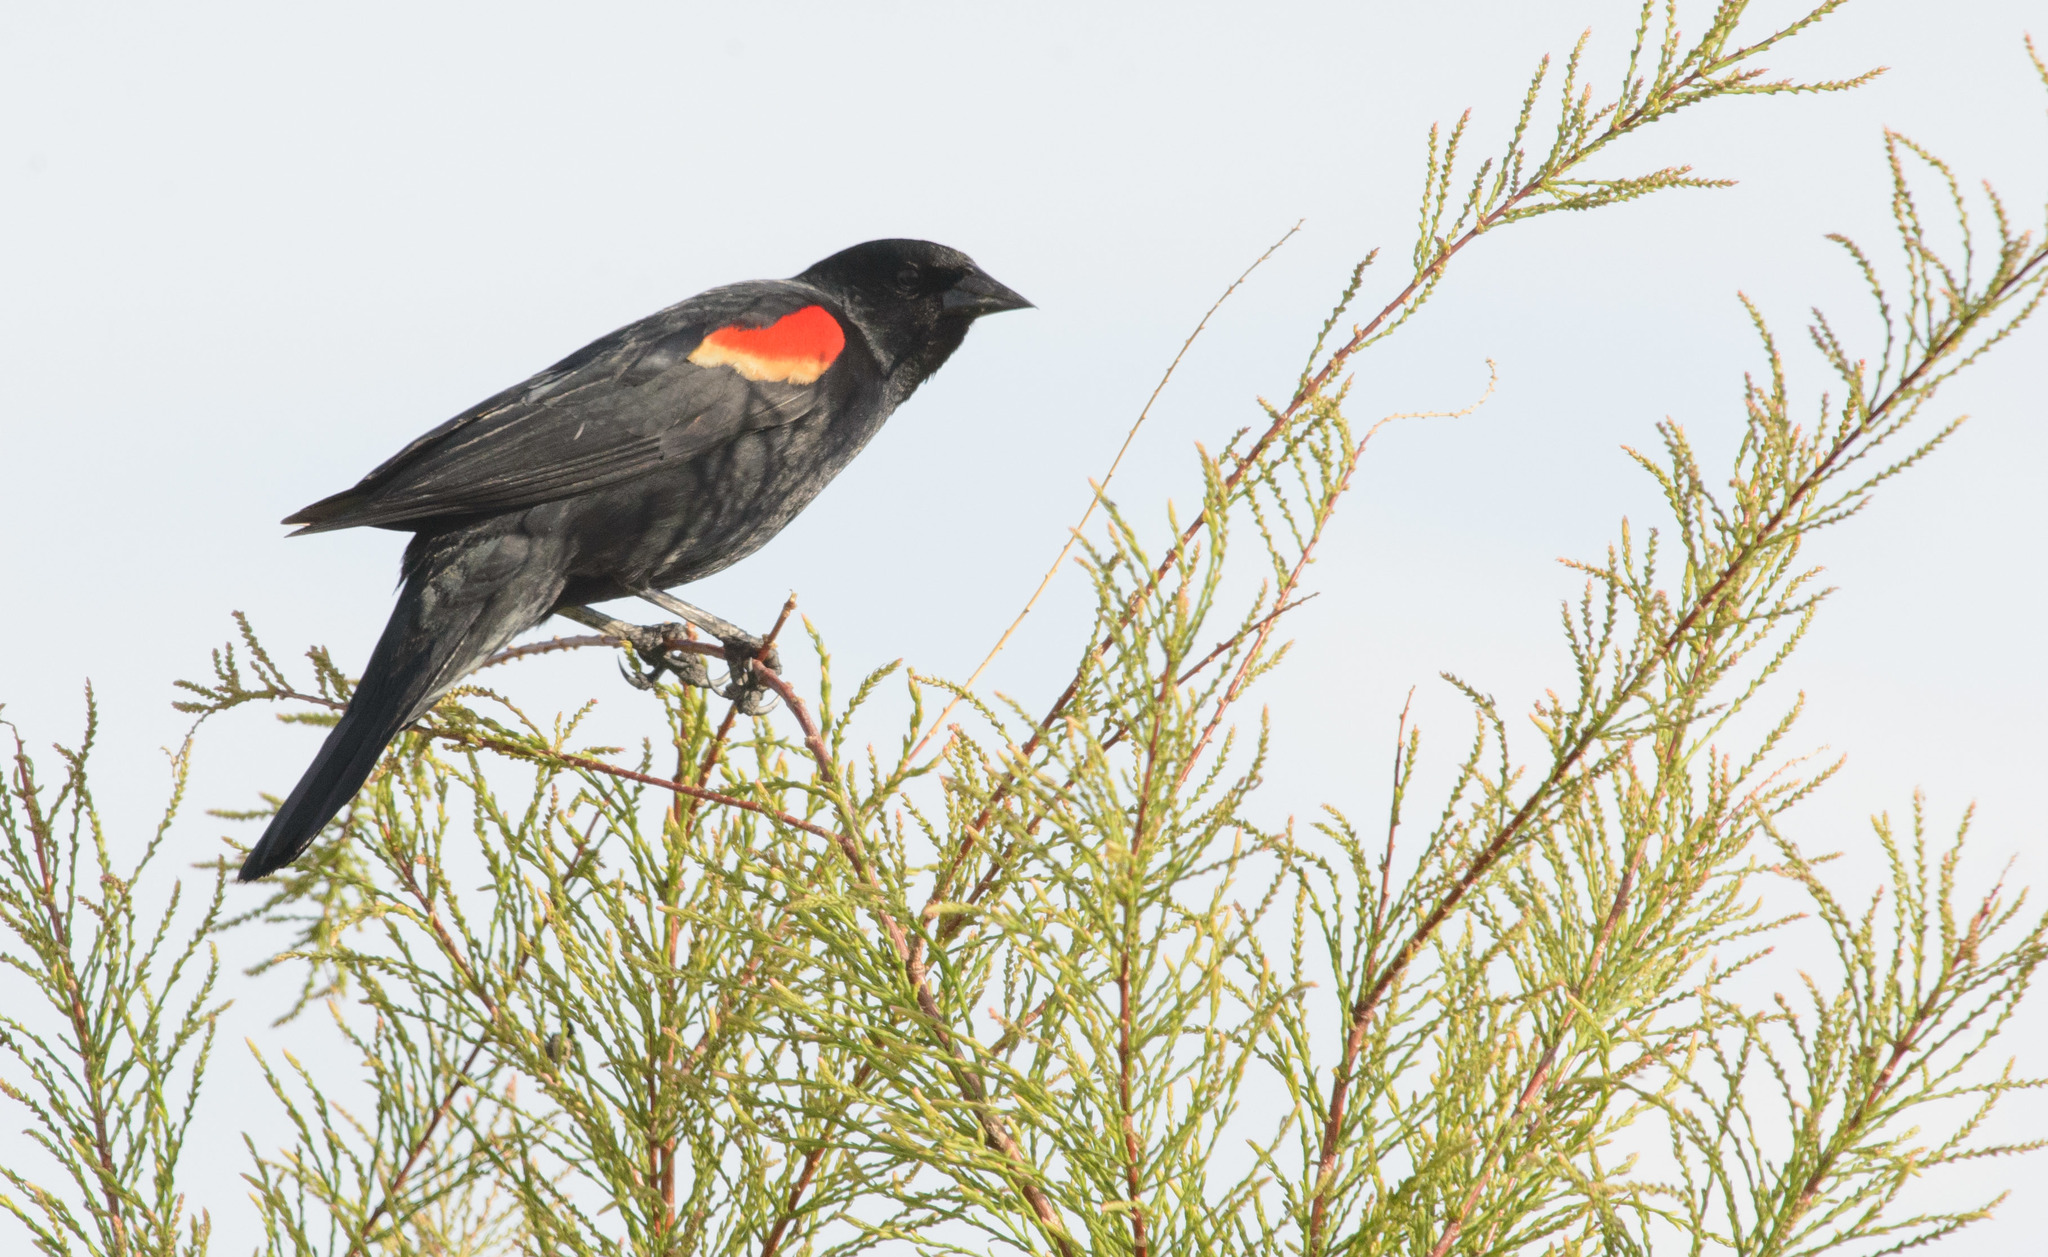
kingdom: Animalia
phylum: Chordata
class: Aves
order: Passeriformes
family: Icteridae
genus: Agelaius
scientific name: Agelaius phoeniceus
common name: Red-winged blackbird
